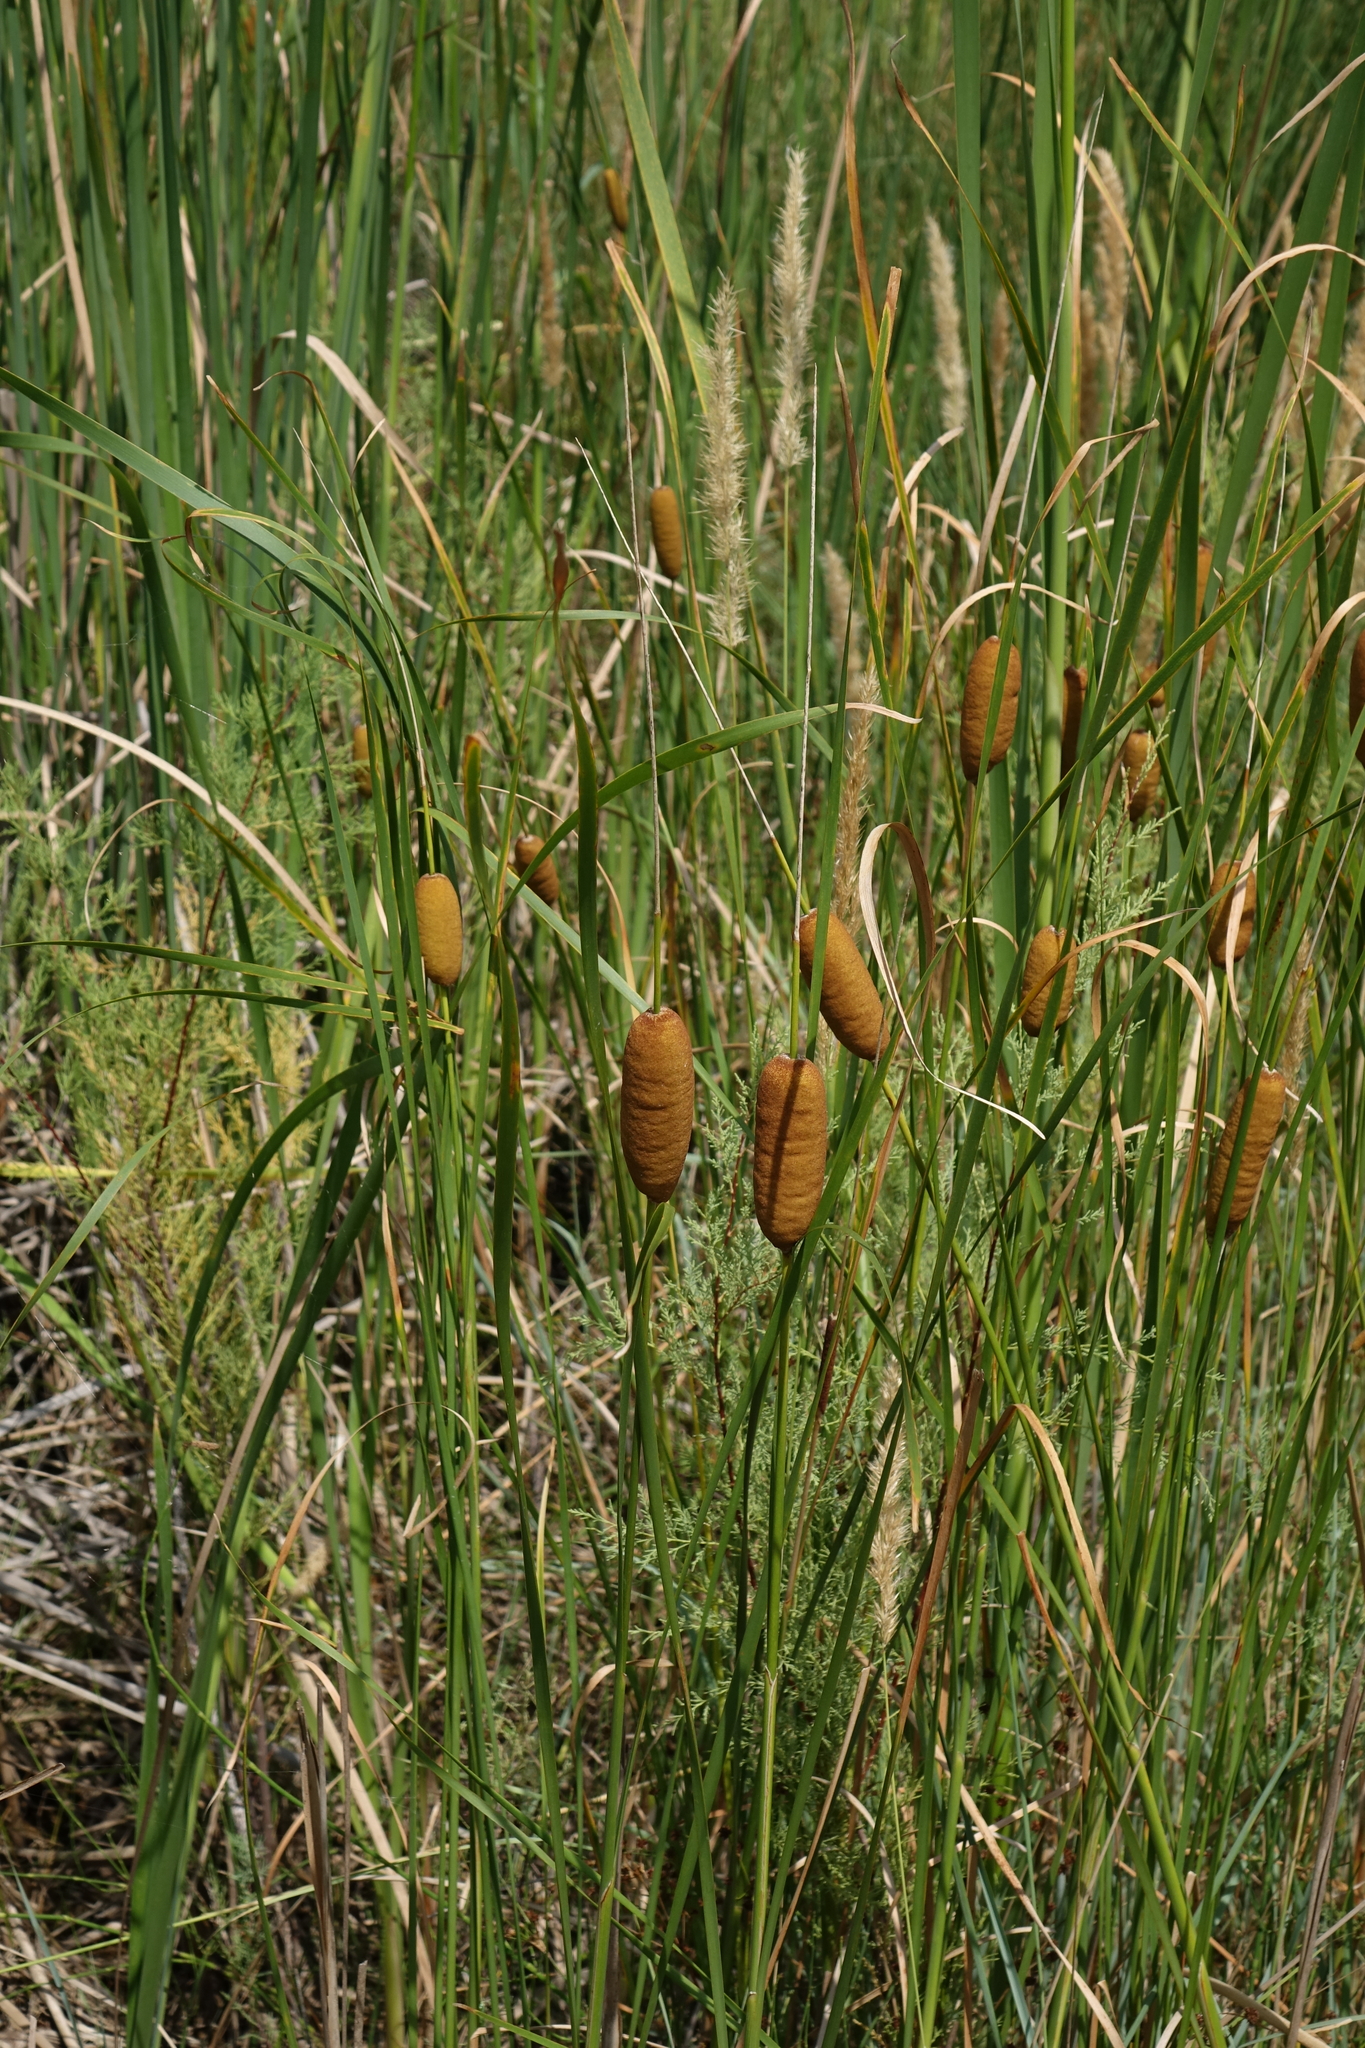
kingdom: Plantae
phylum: Tracheophyta
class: Liliopsida
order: Poales
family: Typhaceae
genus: Typha
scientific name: Typha laxmannii
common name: Laxman’s bulrush
